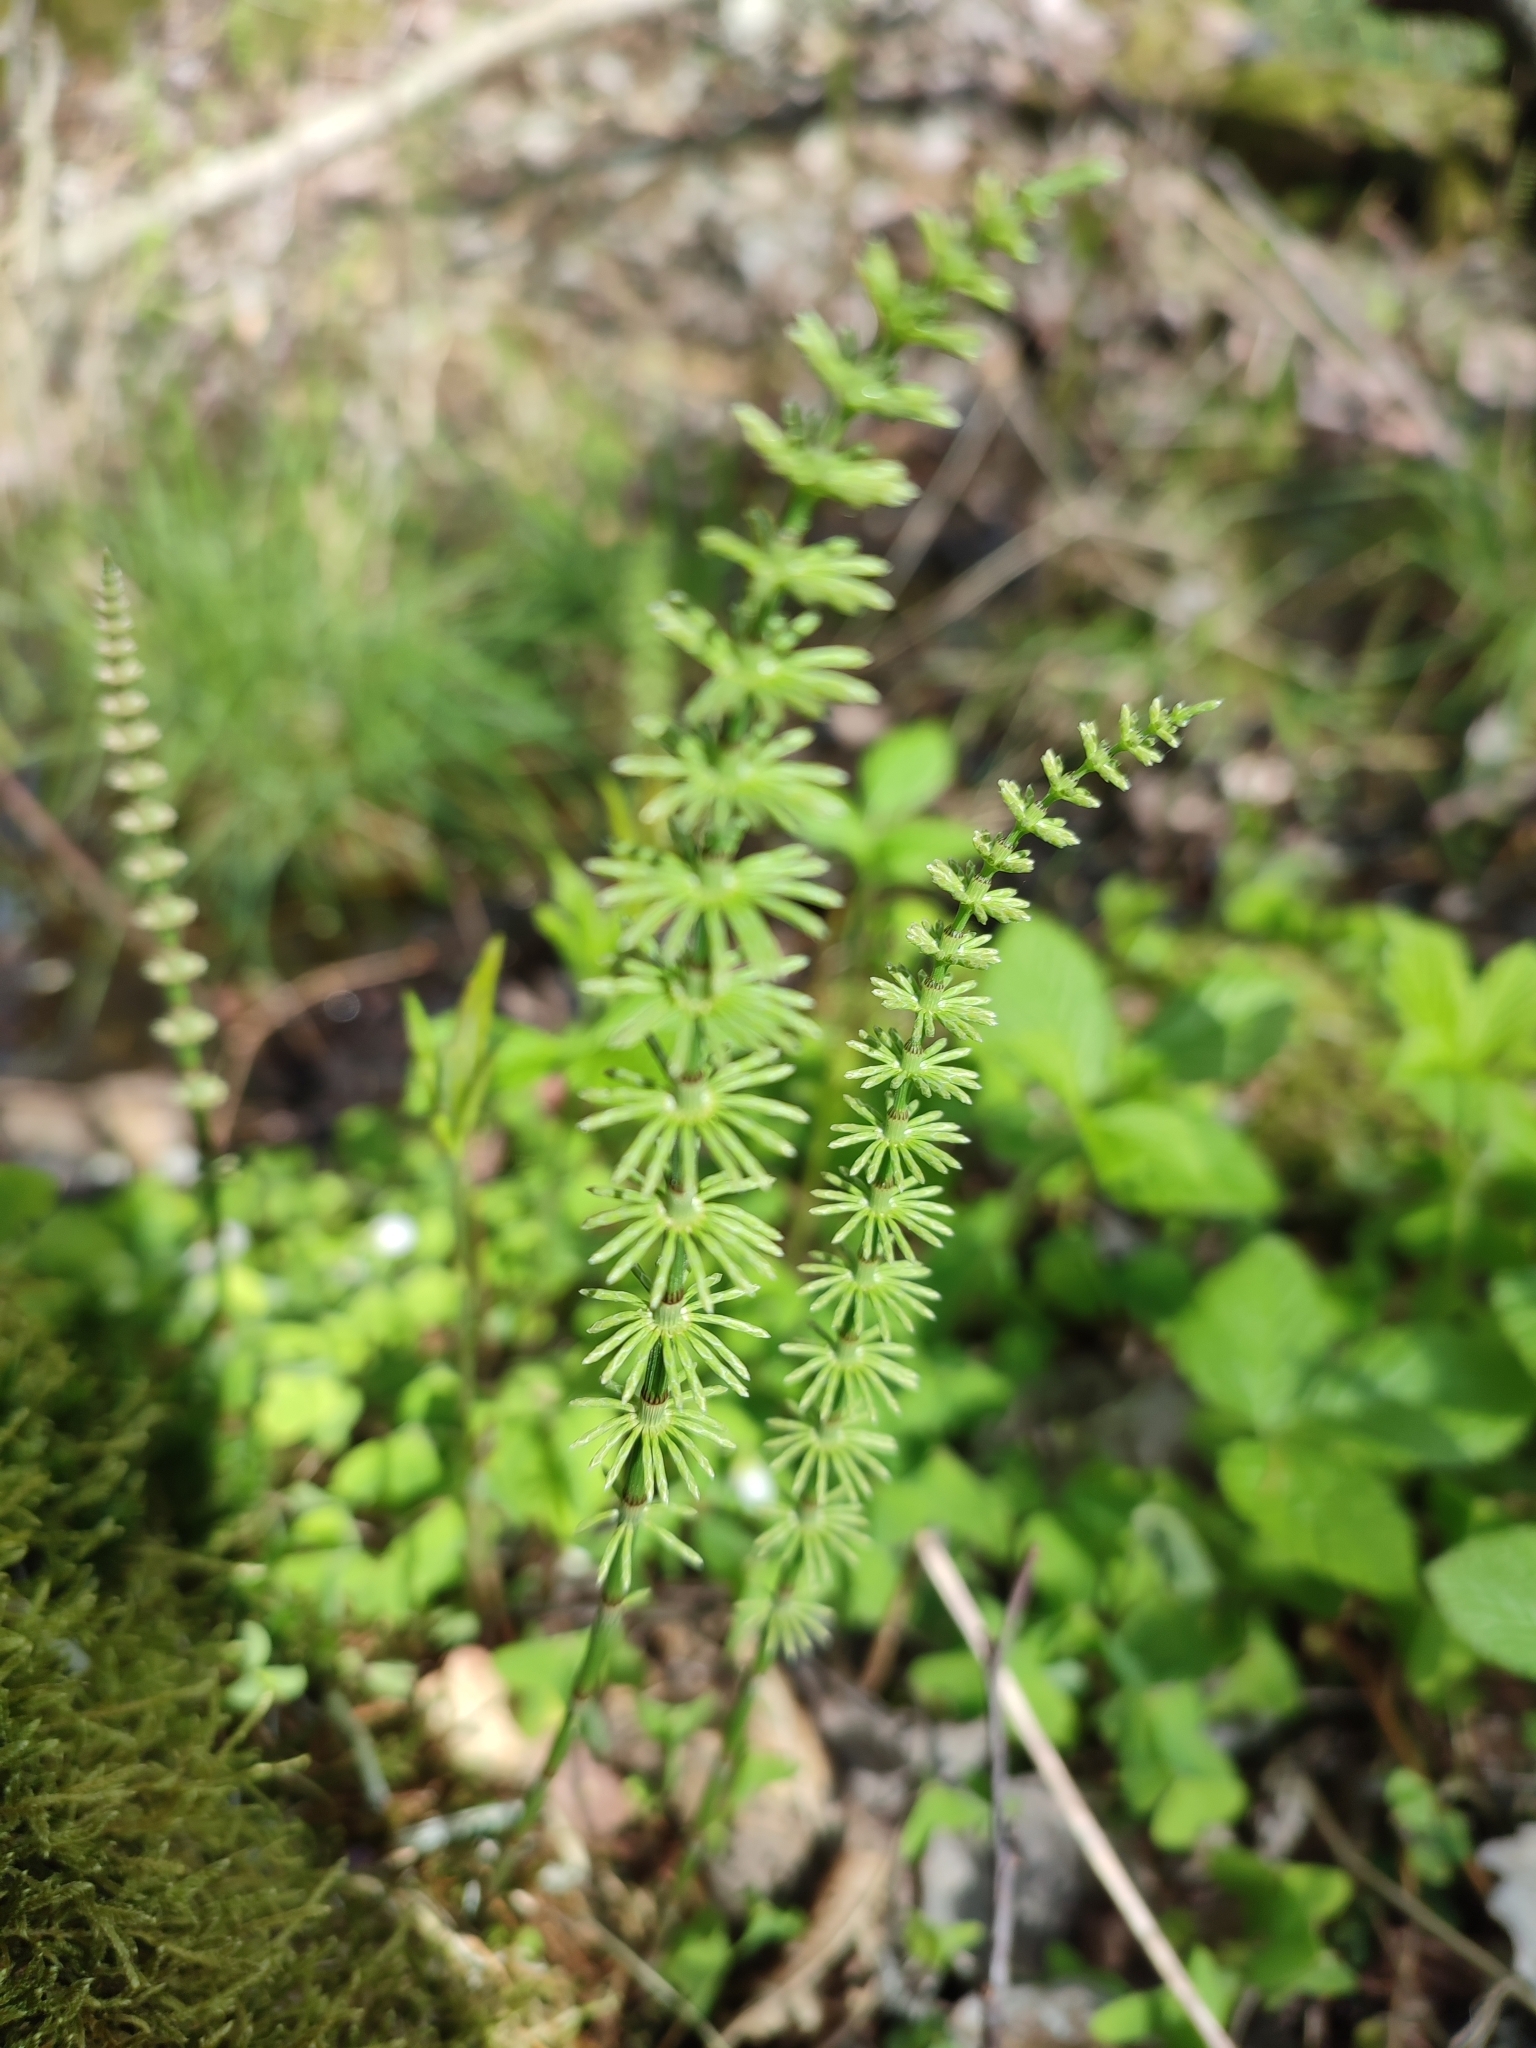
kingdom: Plantae
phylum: Tracheophyta
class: Polypodiopsida
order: Equisetales
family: Equisetaceae
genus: Equisetum
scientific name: Equisetum pratense
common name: Meadow horsetail
